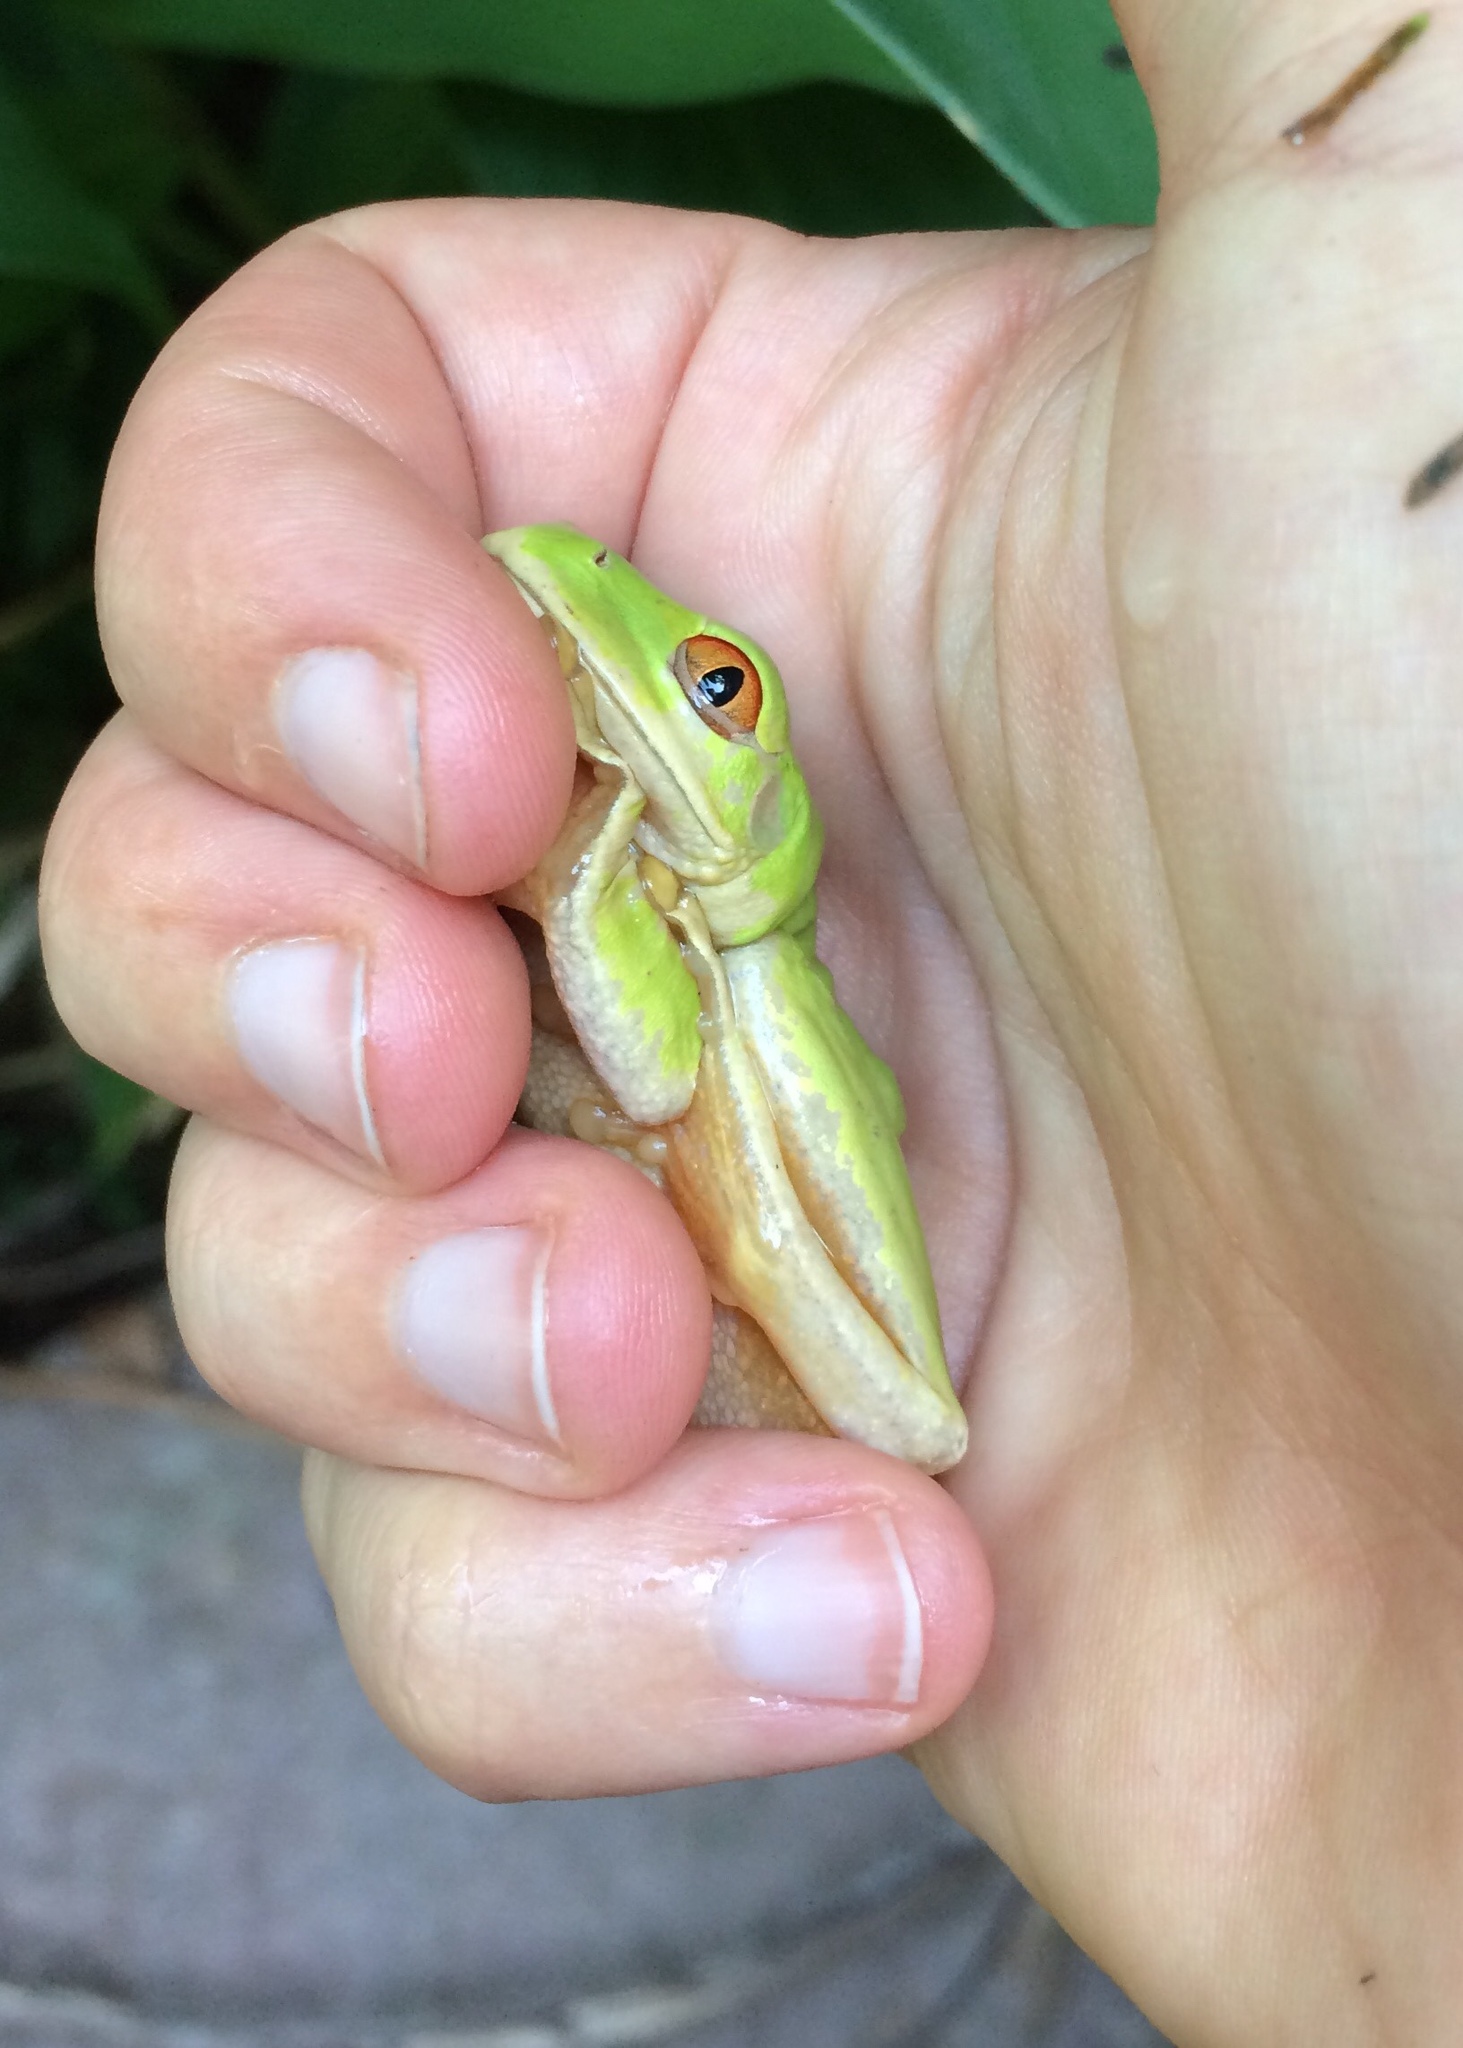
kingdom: Animalia
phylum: Chordata
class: Amphibia
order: Anura
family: Arthroleptidae
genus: Leptopelis
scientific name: Leptopelis natalensis
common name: Natal tree frog
